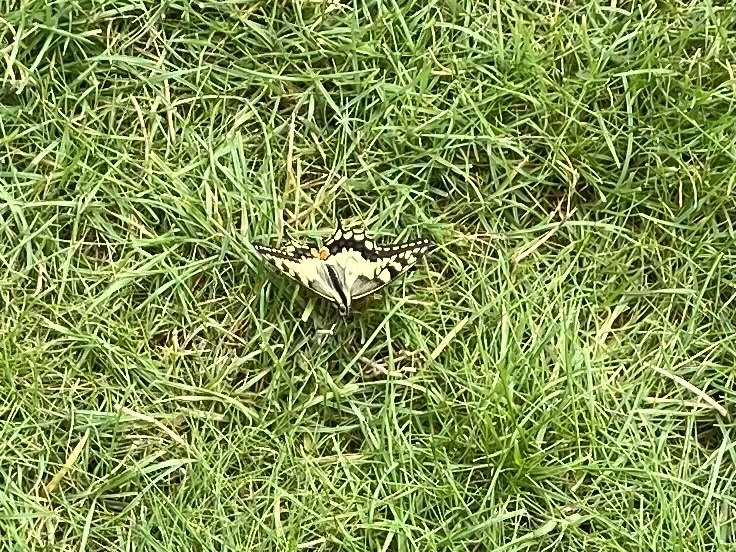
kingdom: Animalia
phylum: Arthropoda
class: Insecta
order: Lepidoptera
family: Papilionidae
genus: Papilio
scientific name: Papilio machaon
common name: Swallowtail
